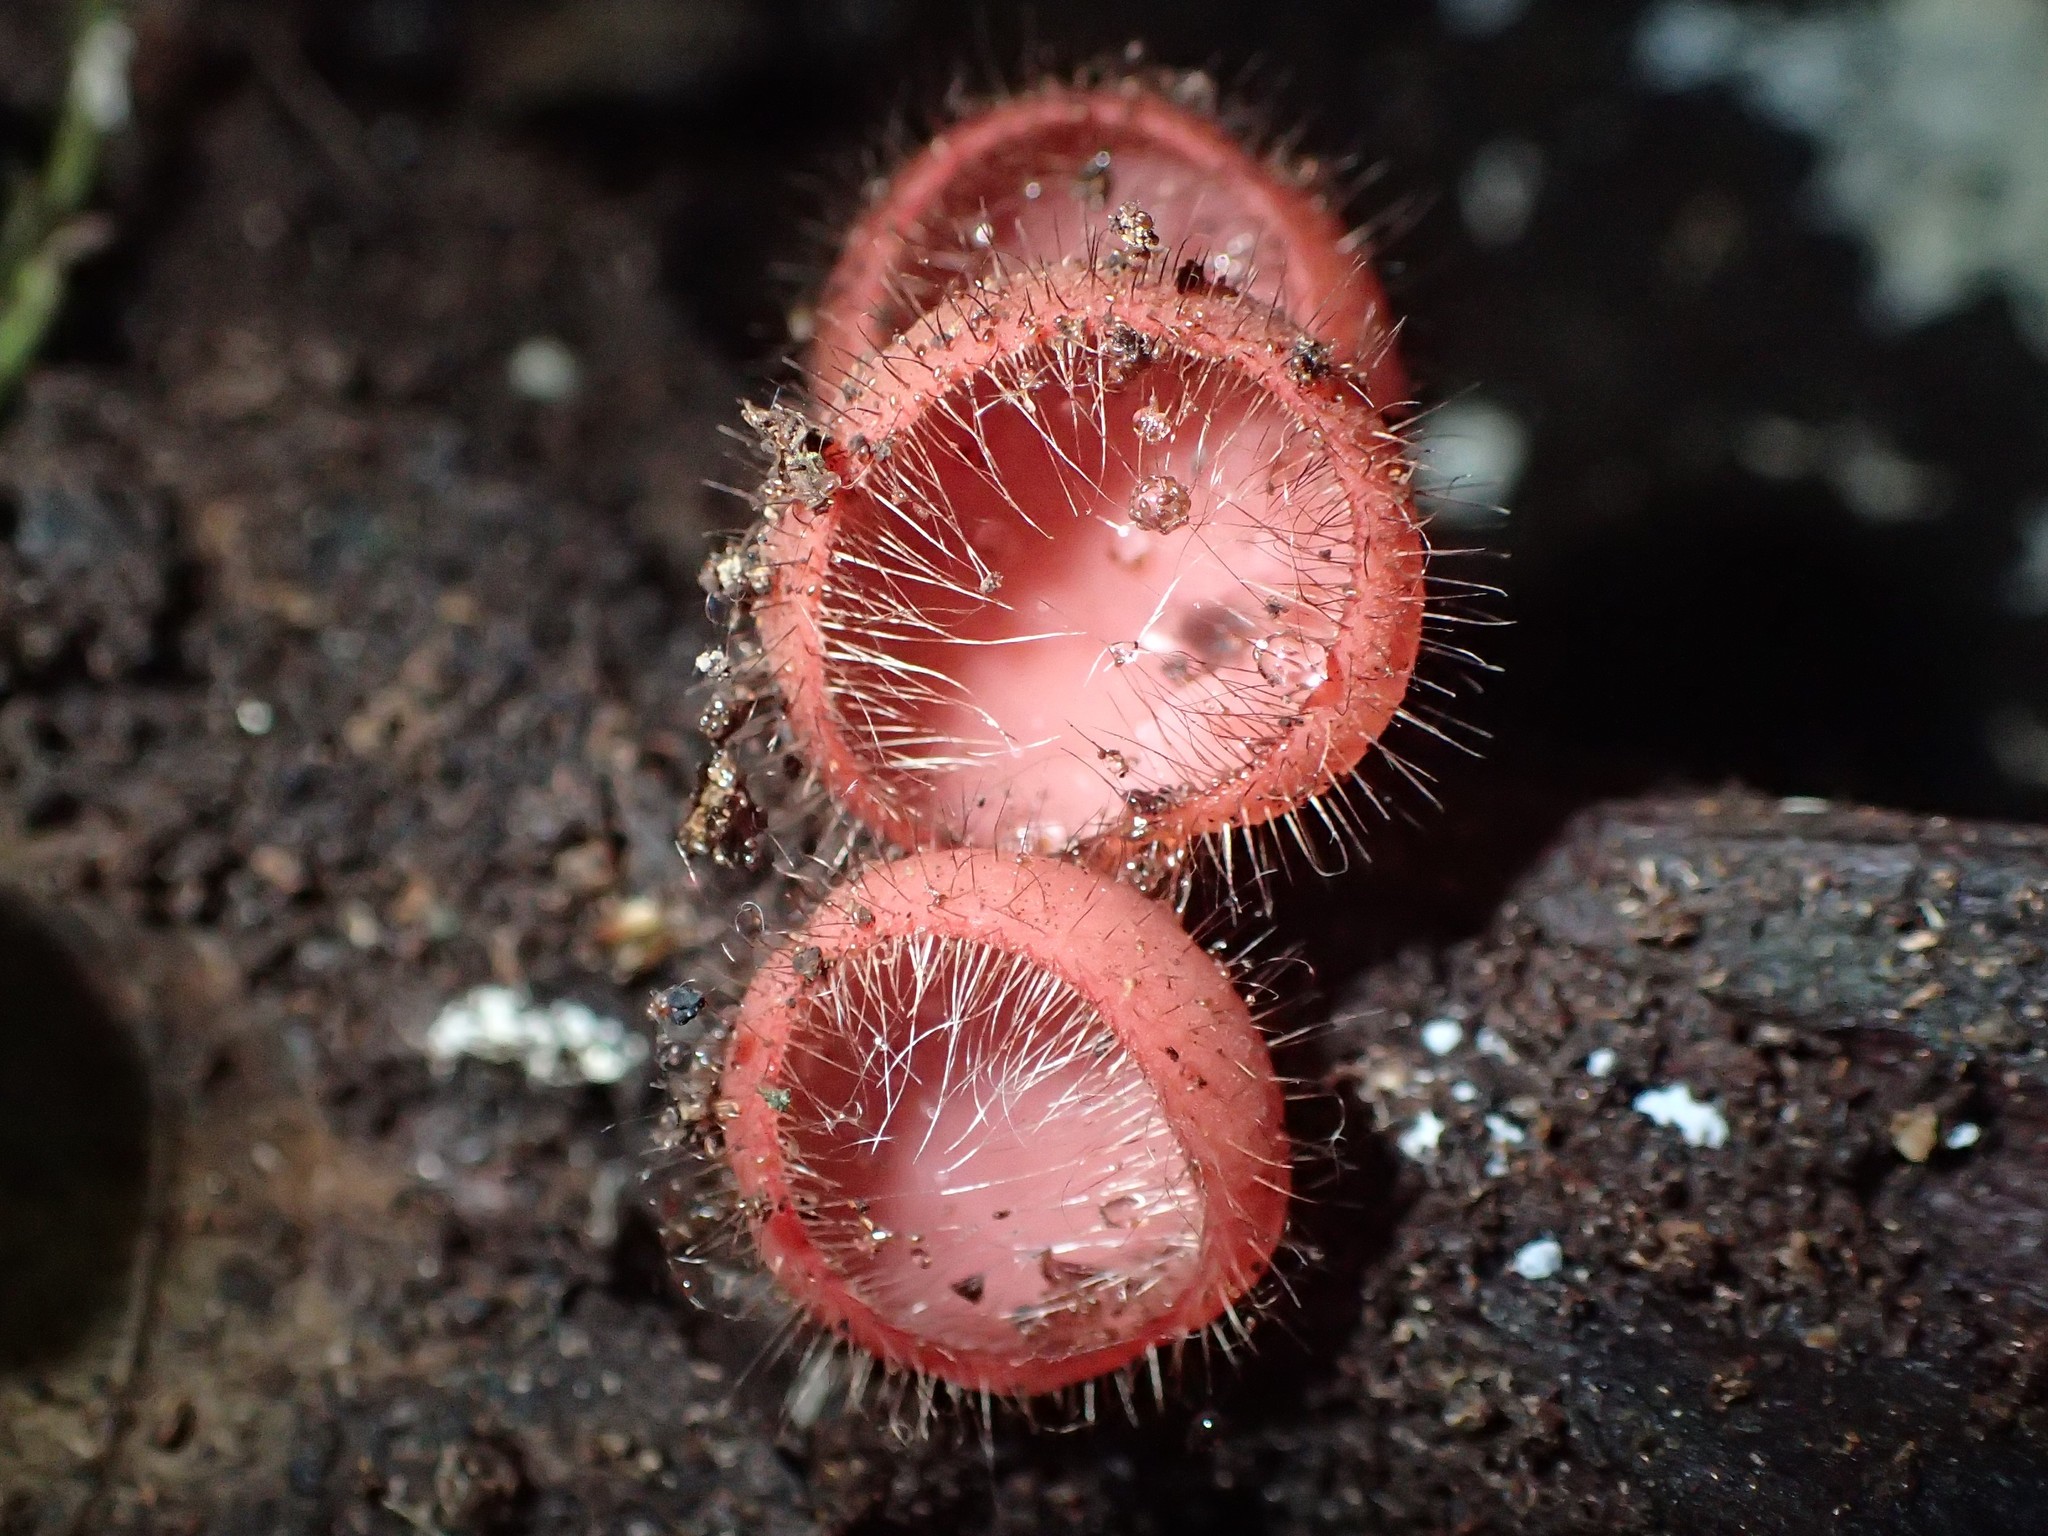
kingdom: Fungi
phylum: Ascomycota
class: Pezizomycetes
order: Pezizales
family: Sarcoscyphaceae
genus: Cookeina
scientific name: Cookeina tricholoma
